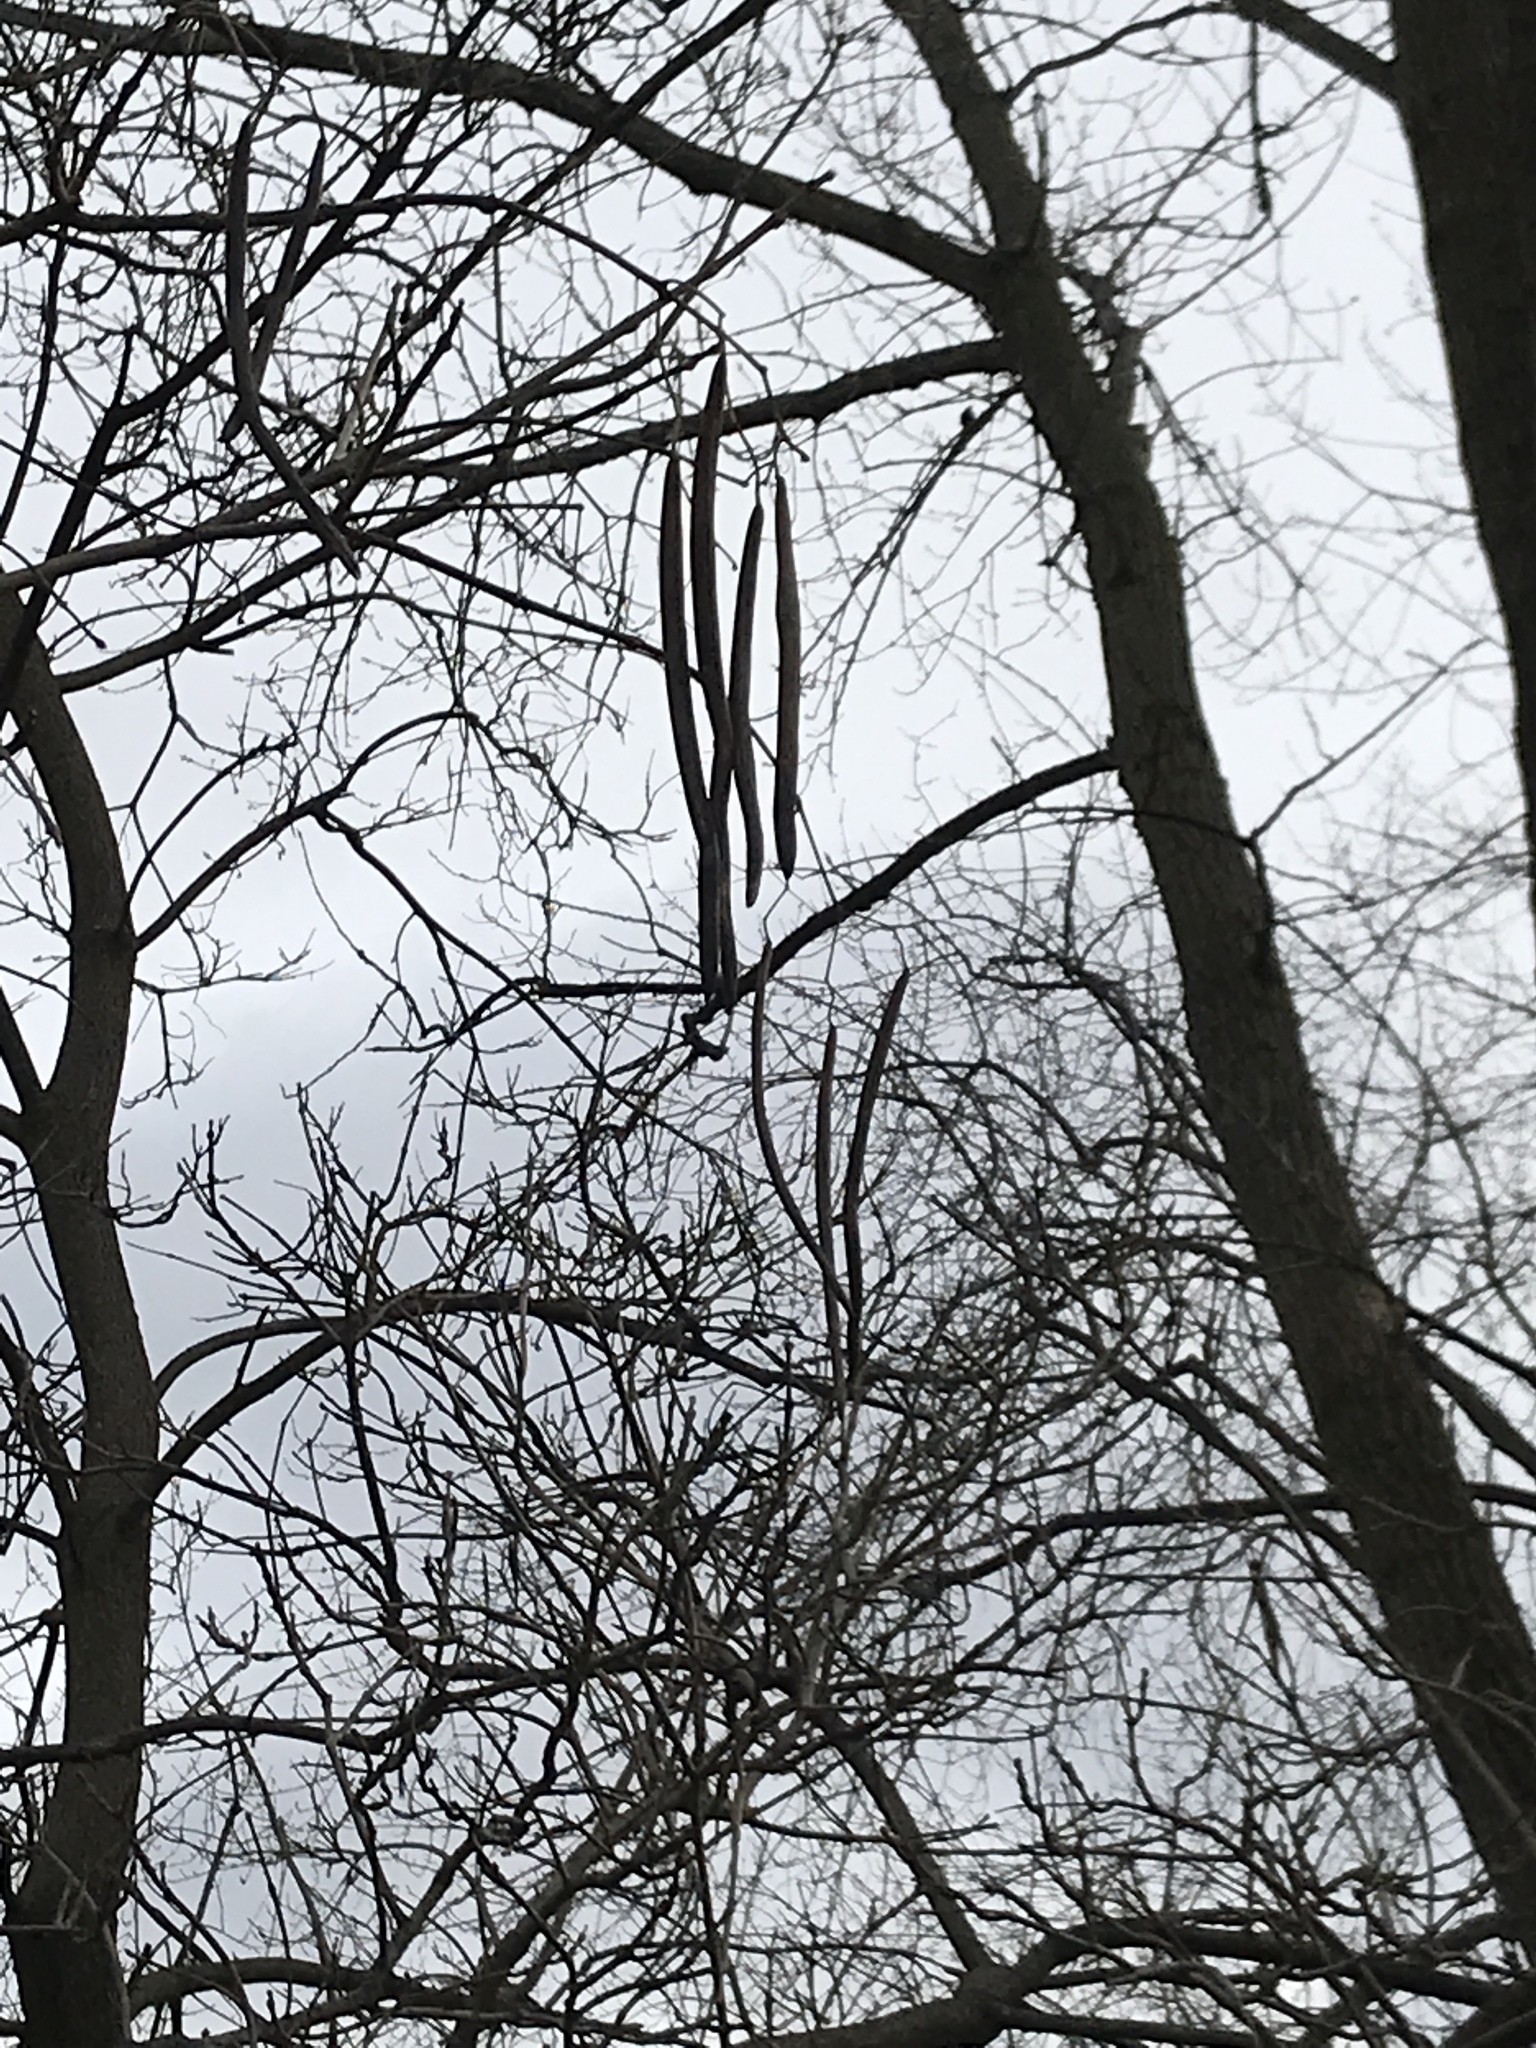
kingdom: Plantae
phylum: Tracheophyta
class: Magnoliopsida
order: Lamiales
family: Bignoniaceae
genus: Catalpa
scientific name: Catalpa speciosa
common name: Northern catalpa
